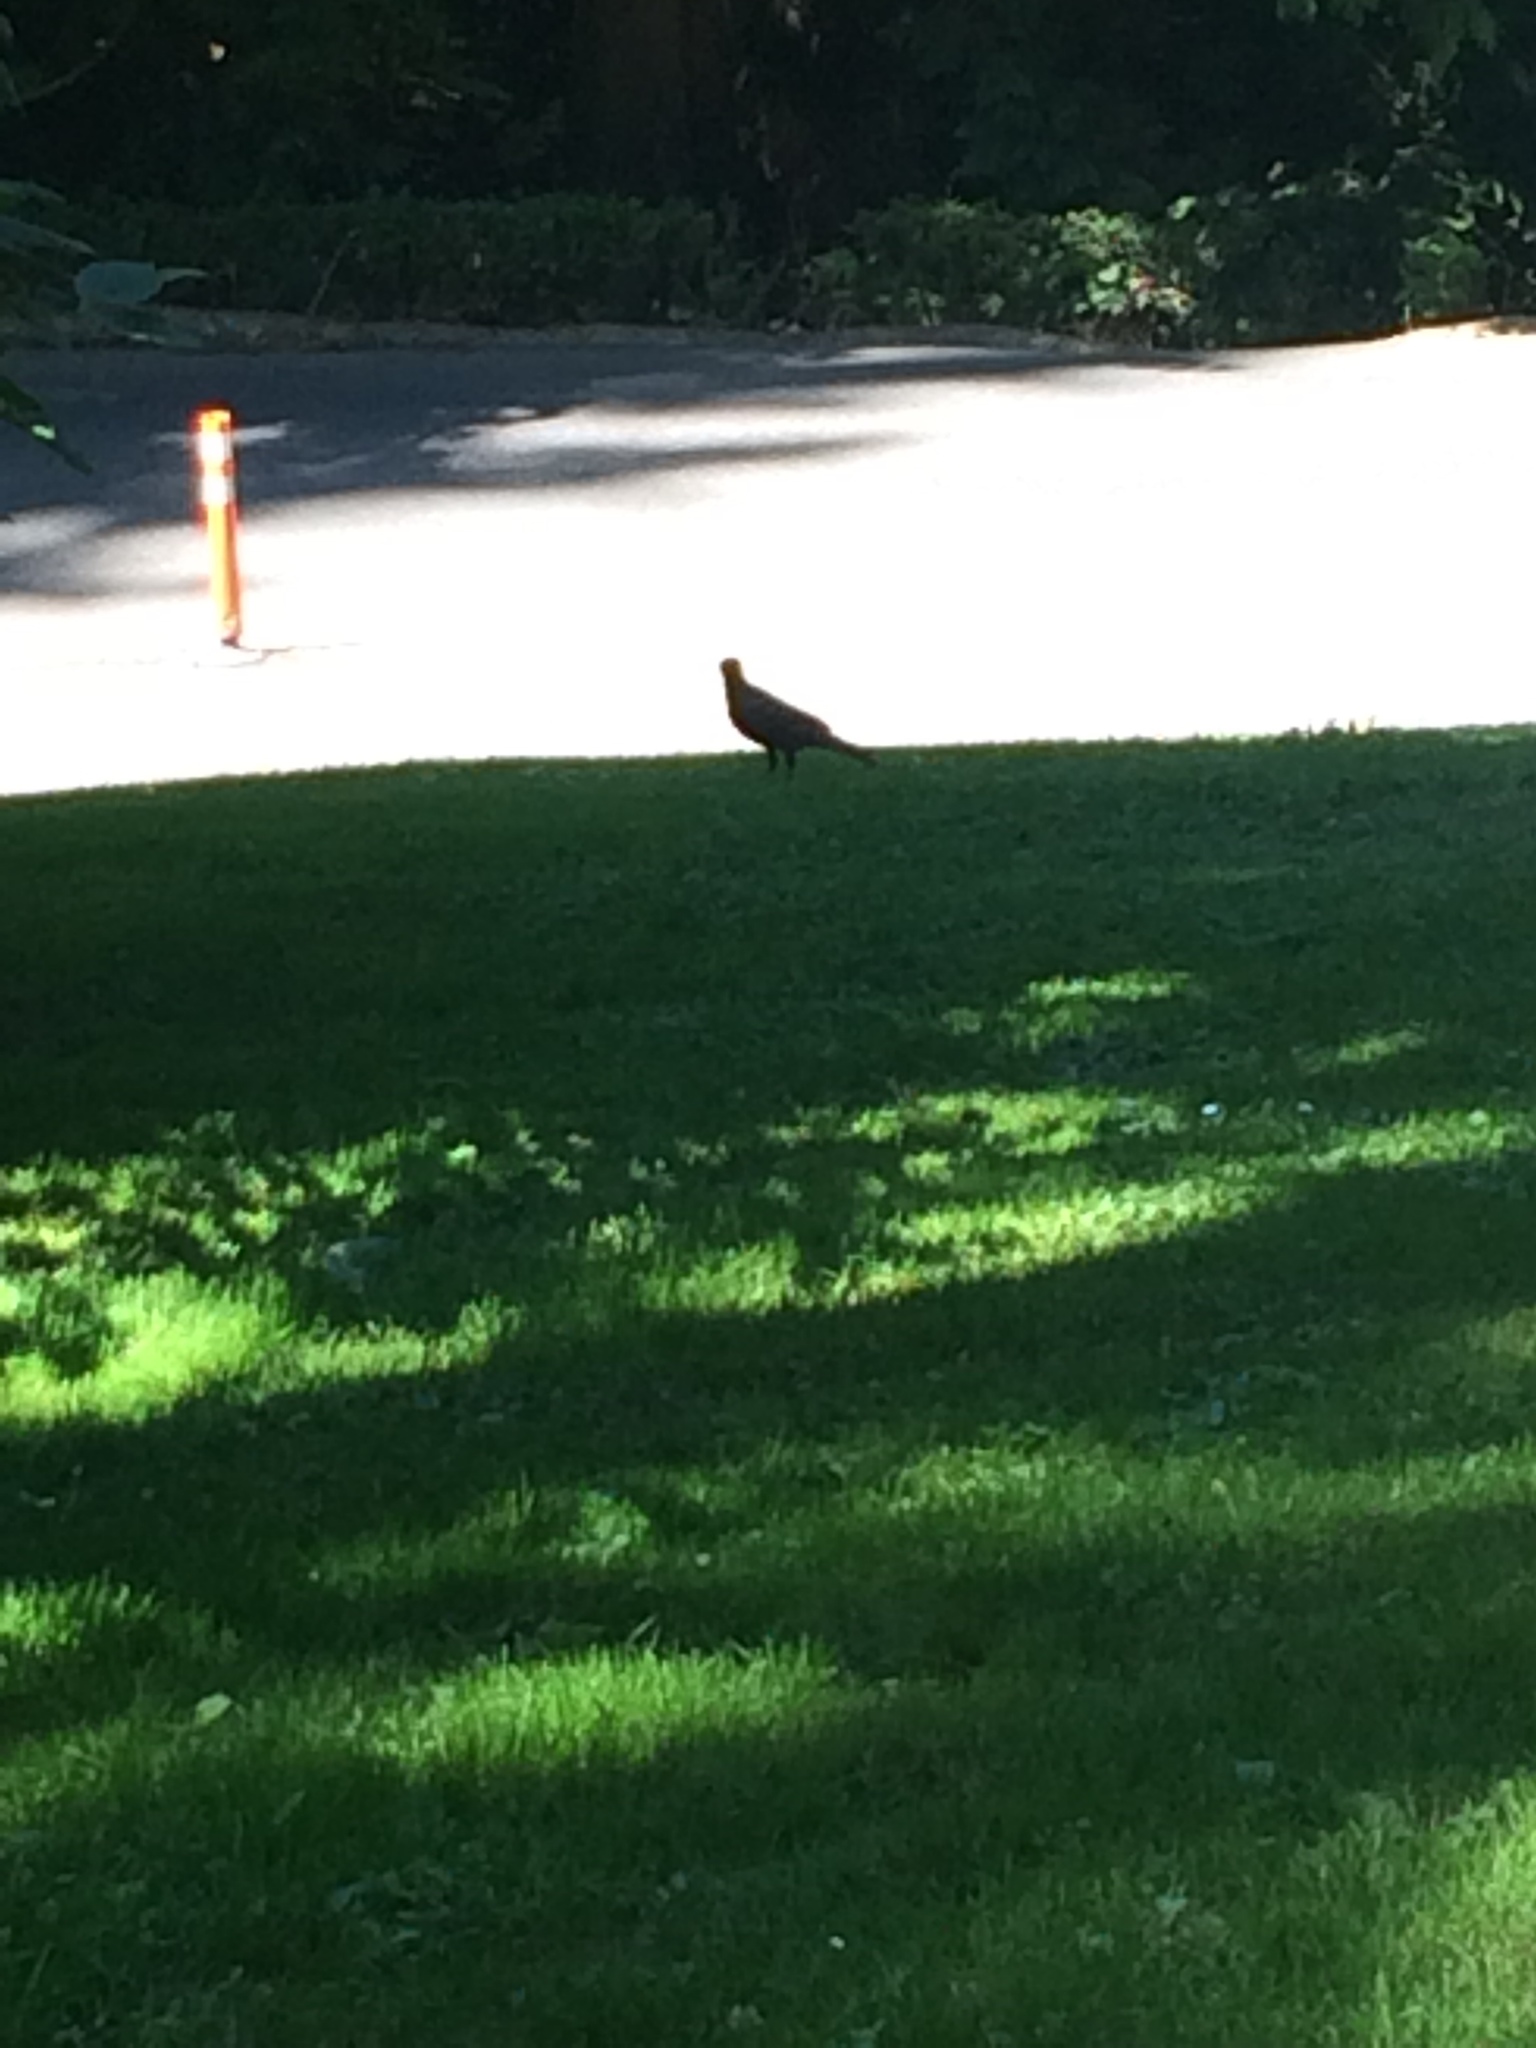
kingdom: Animalia
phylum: Chordata
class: Aves
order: Passeriformes
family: Corvidae
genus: Corvus
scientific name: Corvus brachyrhynchos
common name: American crow
